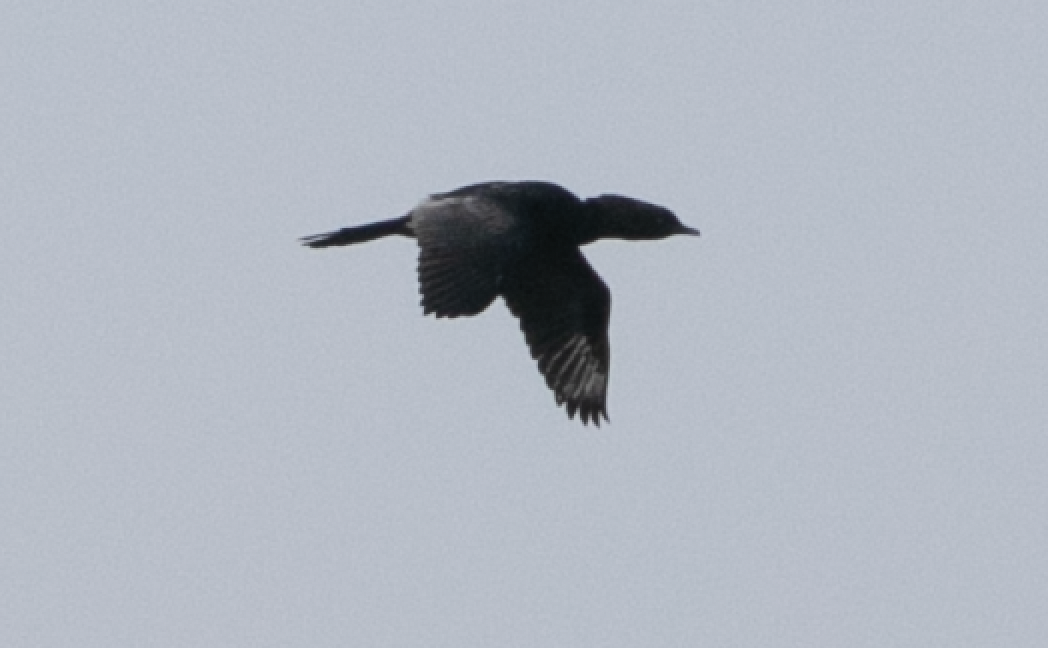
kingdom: Animalia
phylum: Chordata
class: Aves
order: Suliformes
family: Phalacrocoracidae
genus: Microcarbo
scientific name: Microcarbo pygmaeus
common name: Pygmy cormorant
